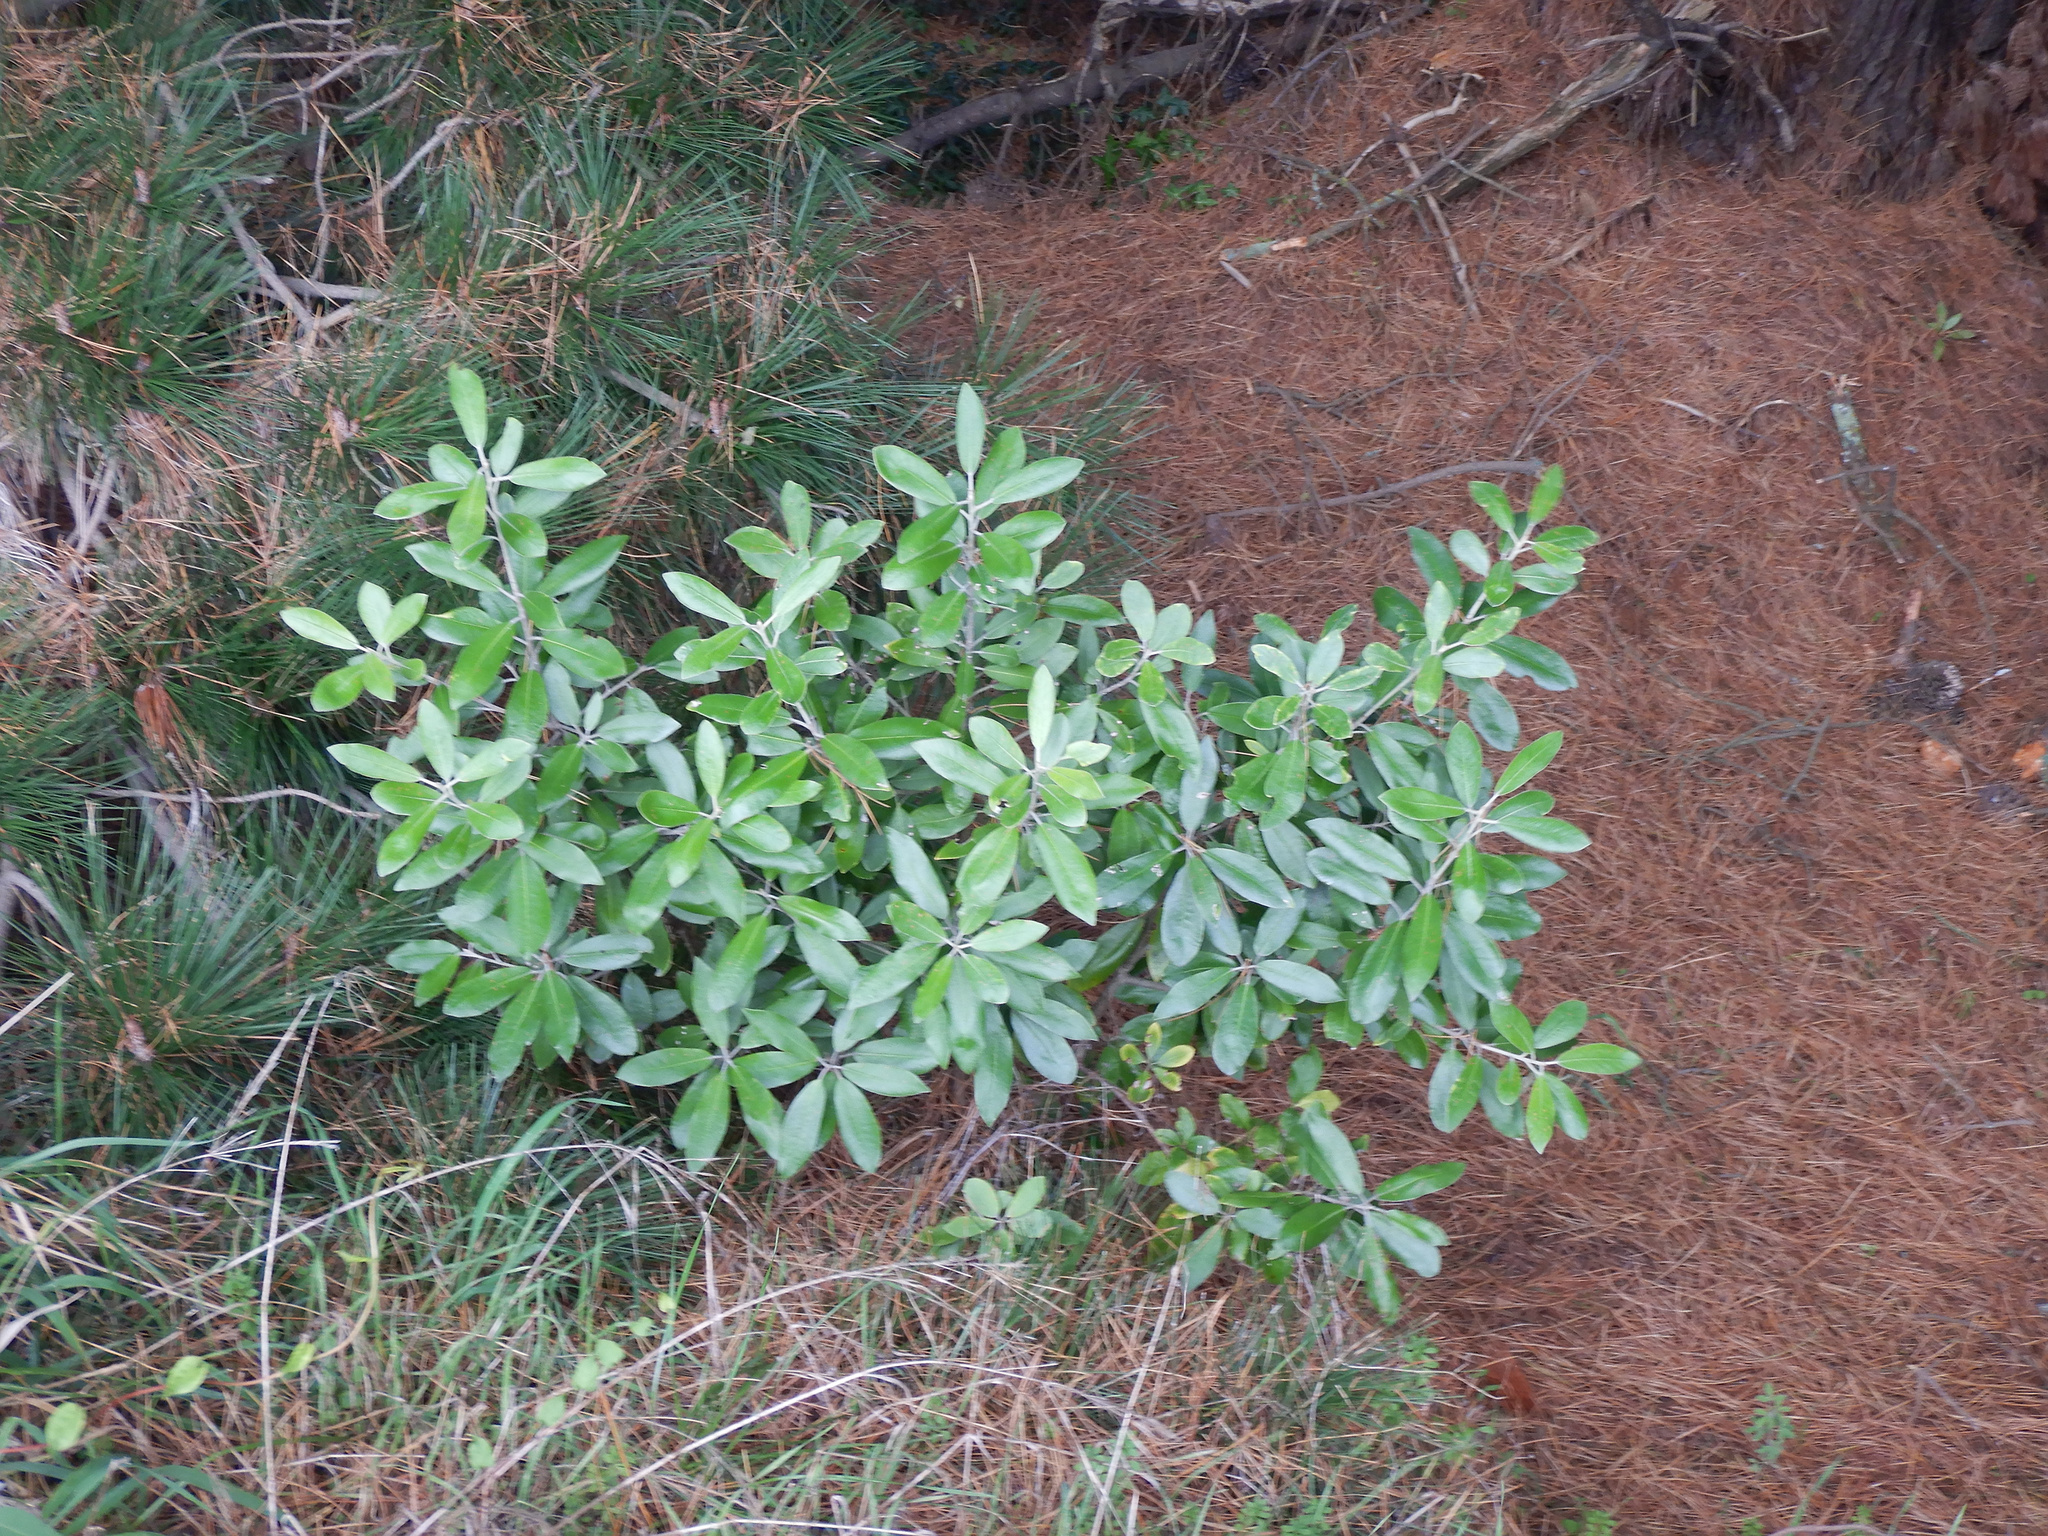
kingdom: Plantae
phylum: Tracheophyta
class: Magnoliopsida
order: Apiales
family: Pittosporaceae
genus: Pittosporum
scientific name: Pittosporum ralphii
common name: Ralph's desertwillow
